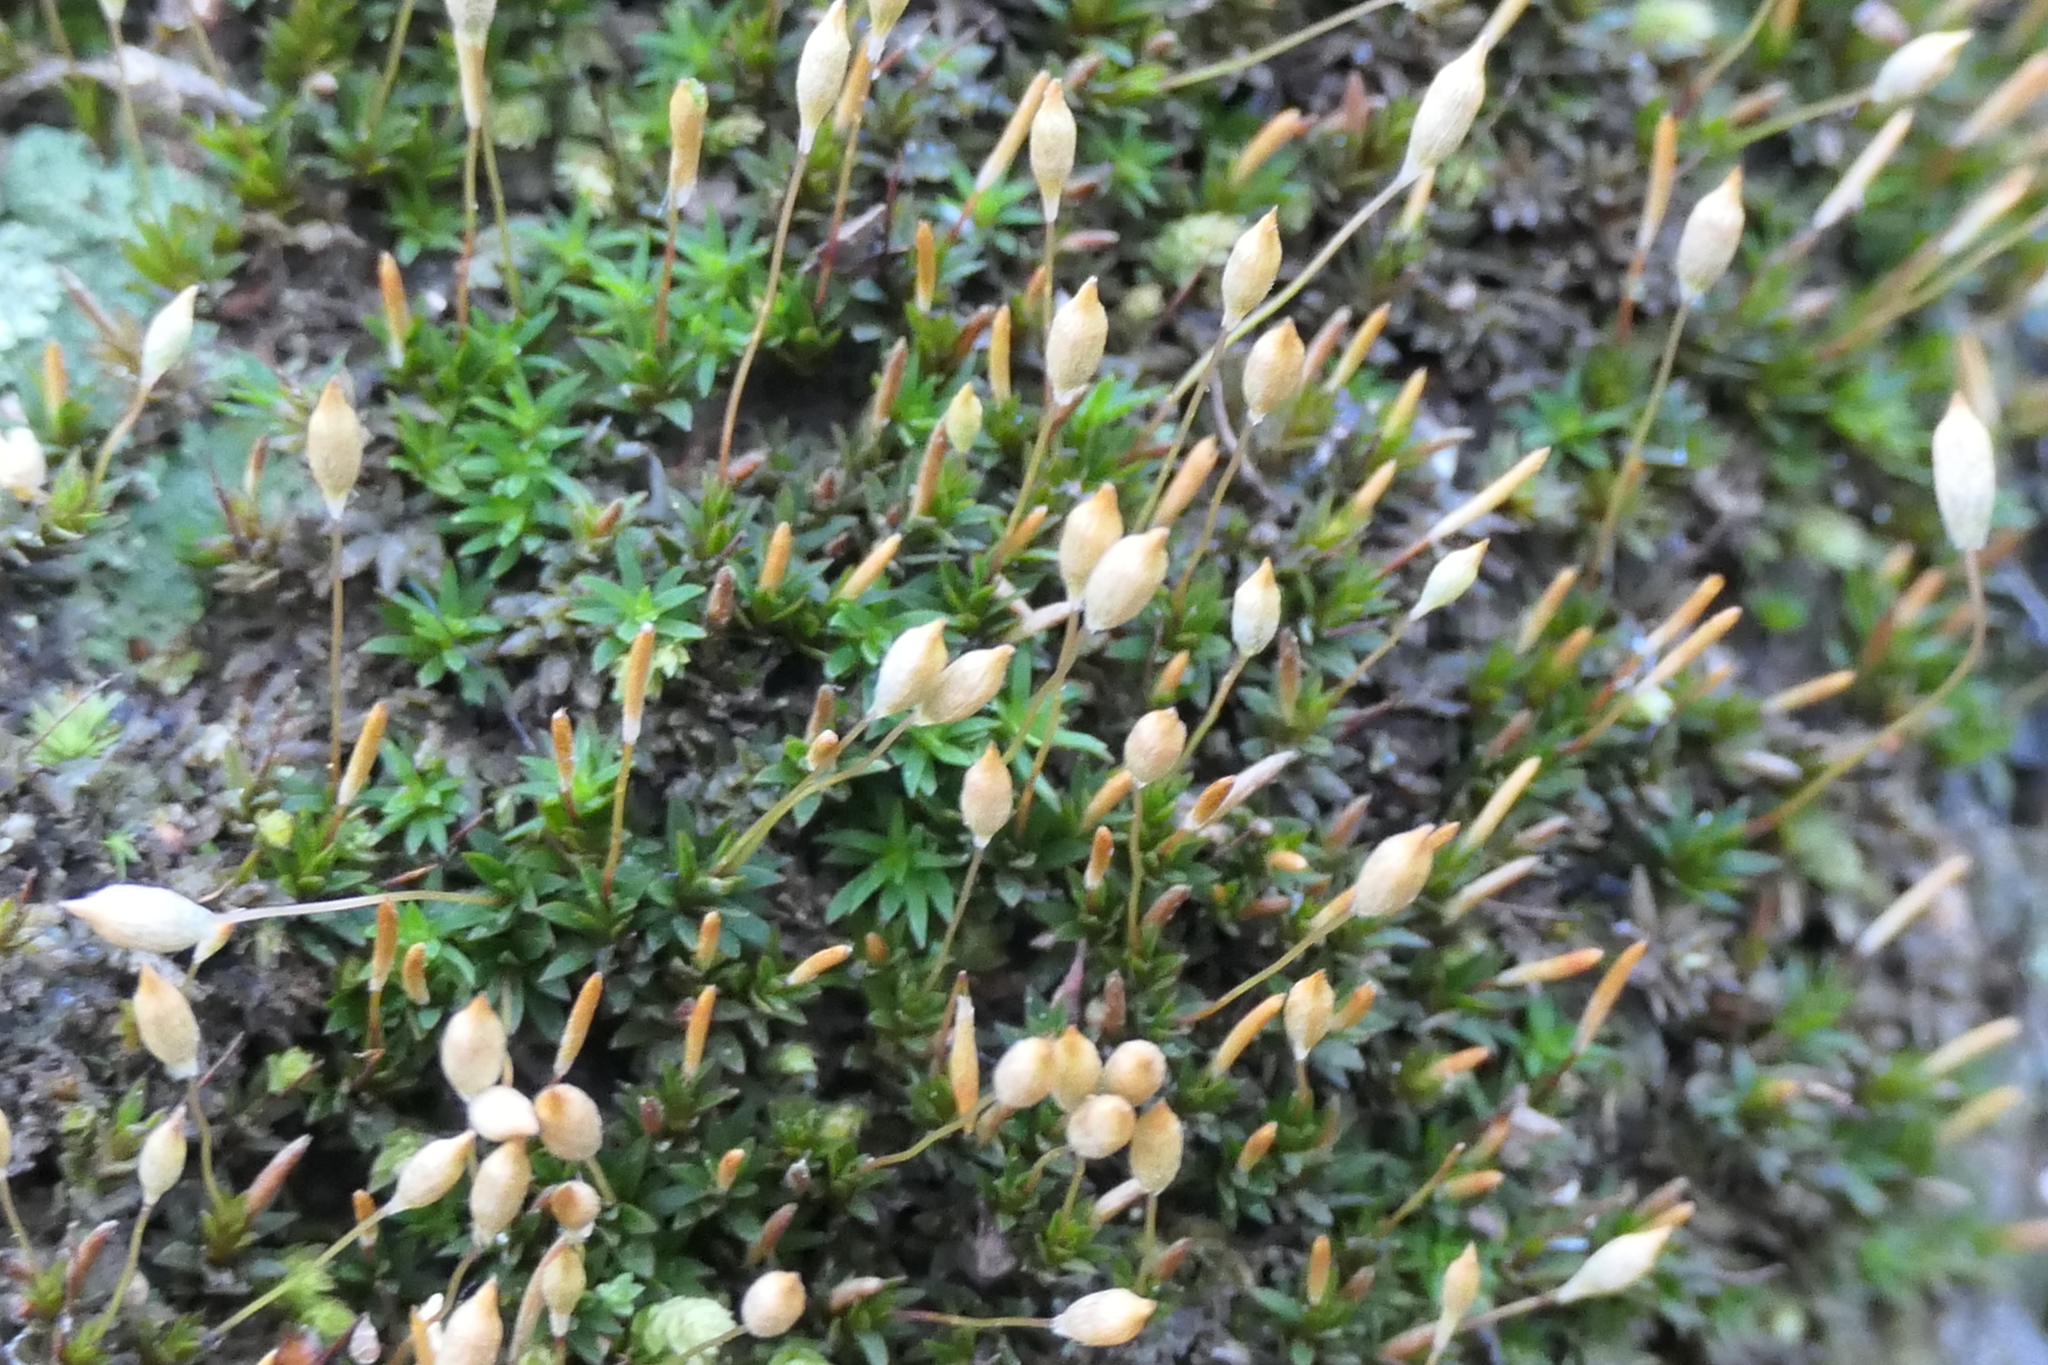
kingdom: Plantae
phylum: Bryophyta
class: Polytrichopsida
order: Polytrichales
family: Polytrichaceae
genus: Pogonatum
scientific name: Pogonatum aloides
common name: Aloe haircap
